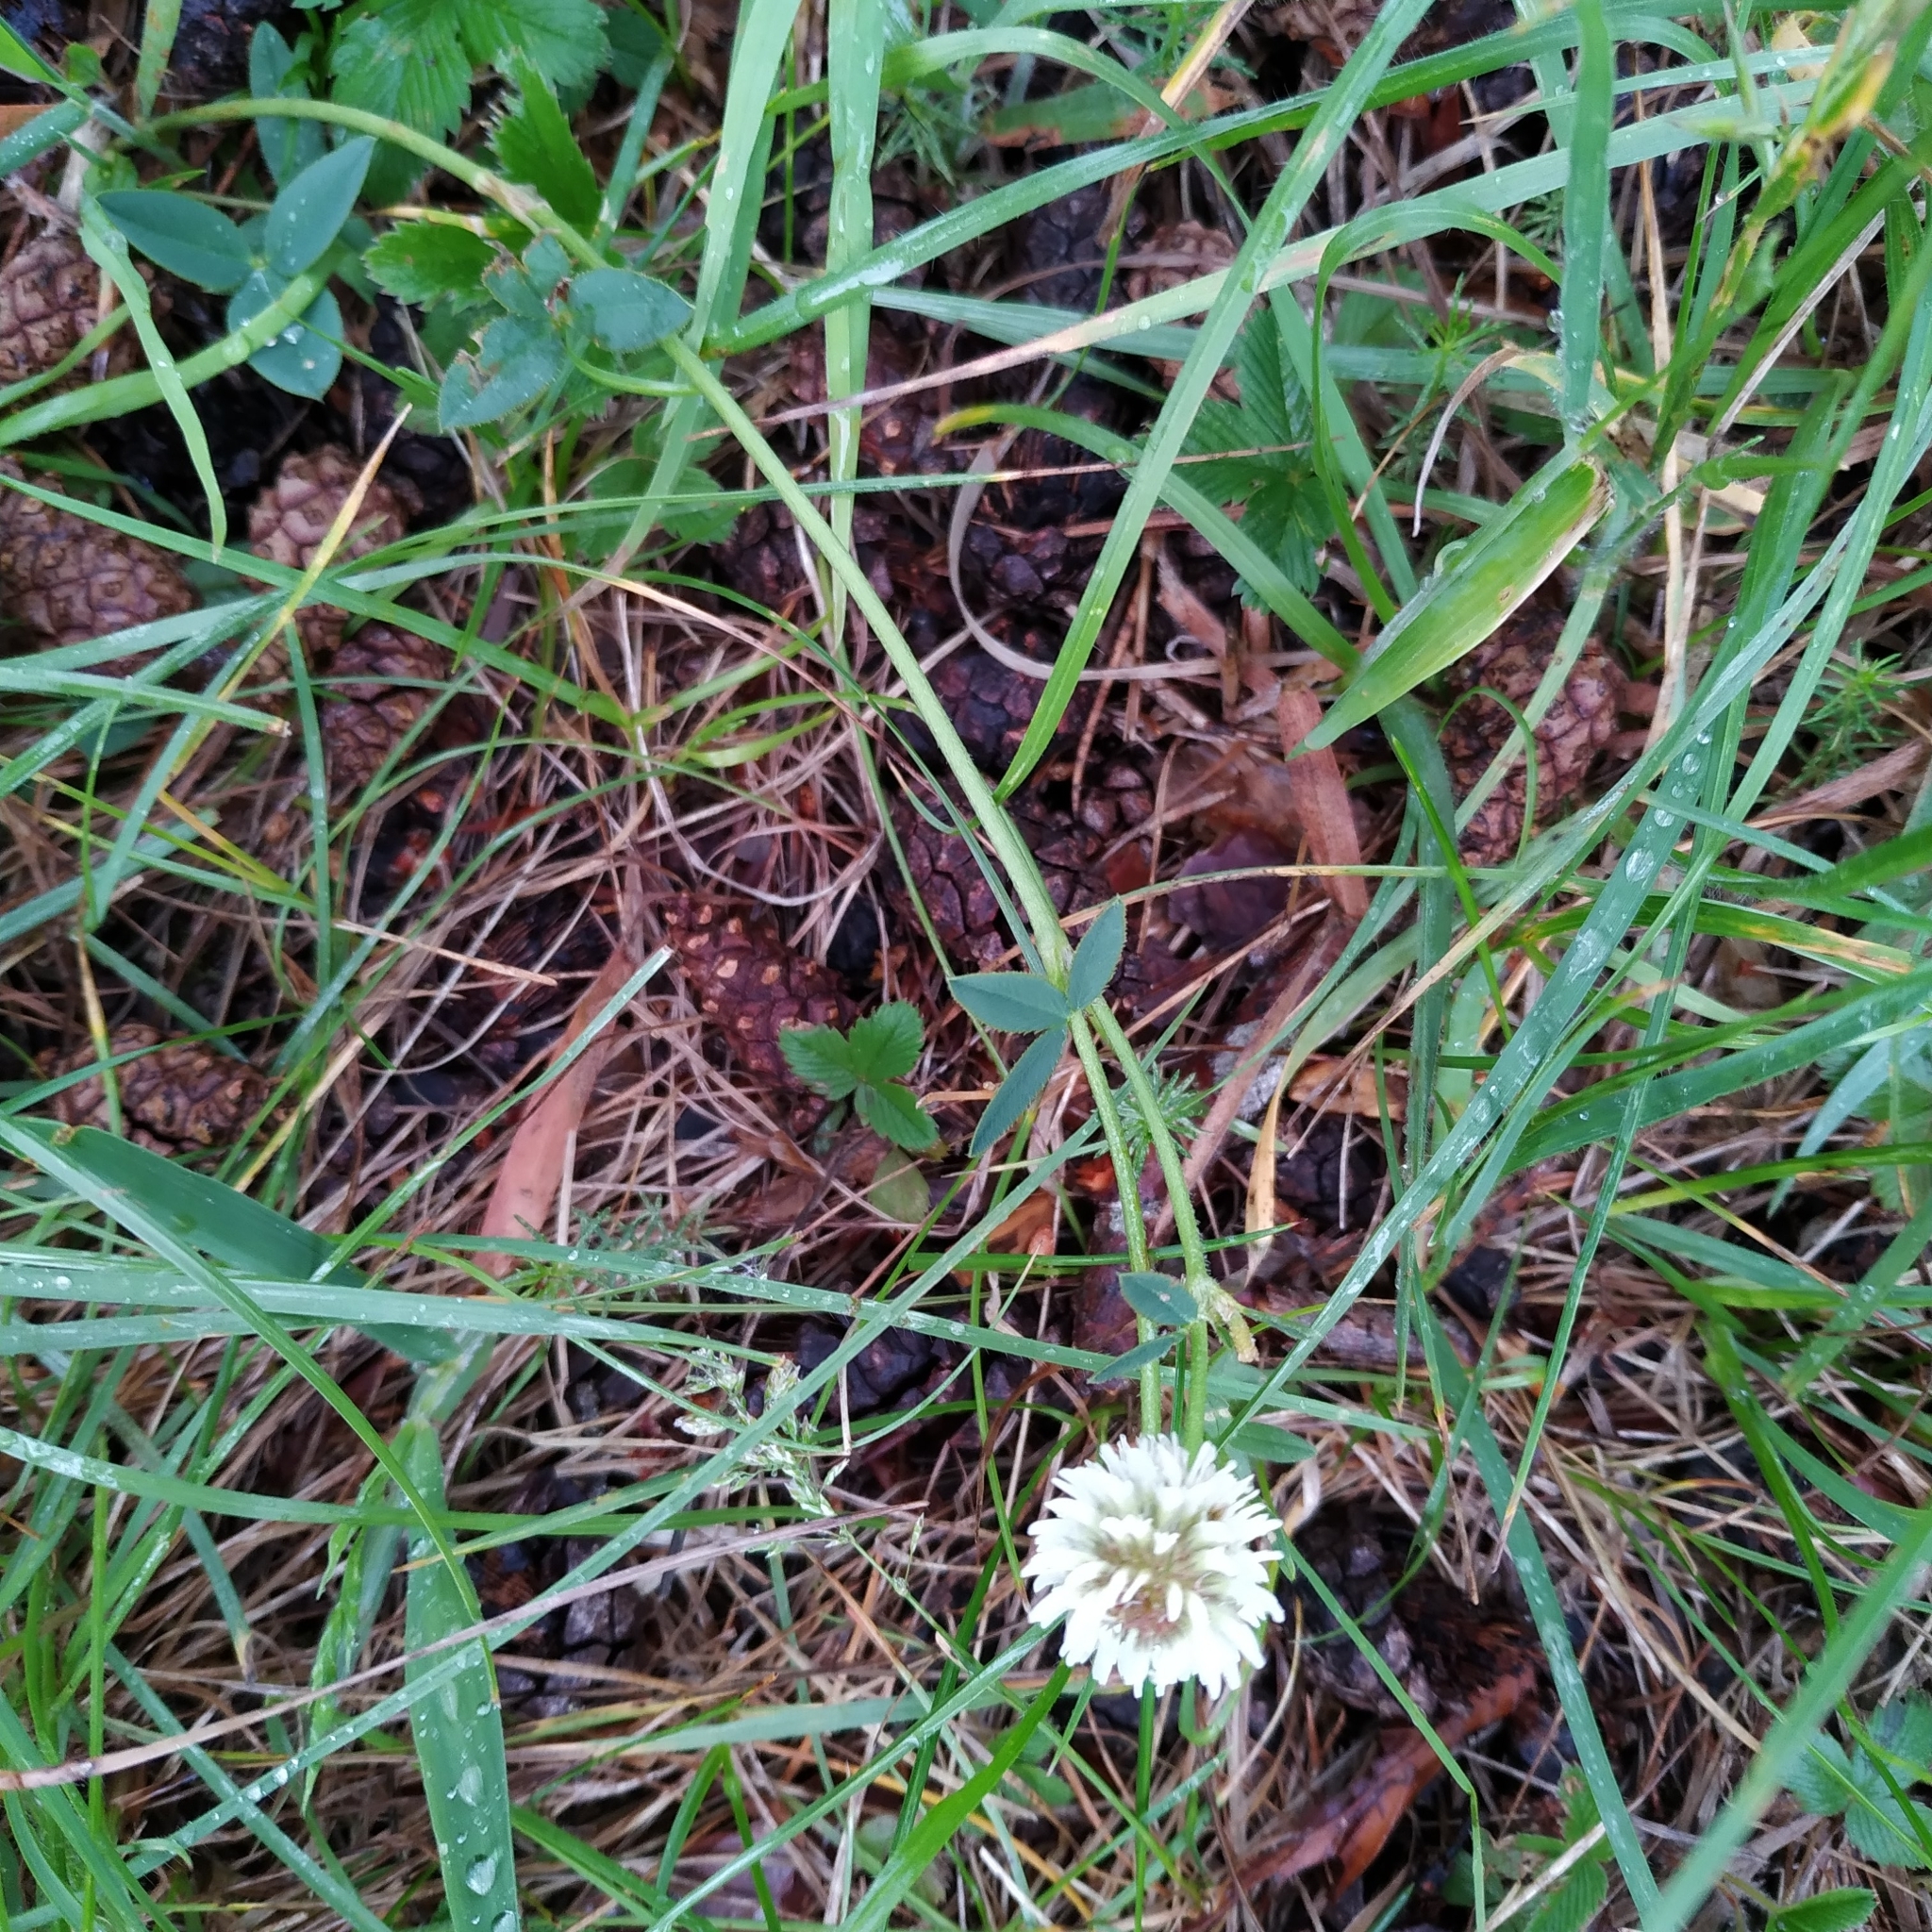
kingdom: Plantae
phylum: Tracheophyta
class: Magnoliopsida
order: Fabales
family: Fabaceae
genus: Trifolium
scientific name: Trifolium montanum
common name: Mountain clover
